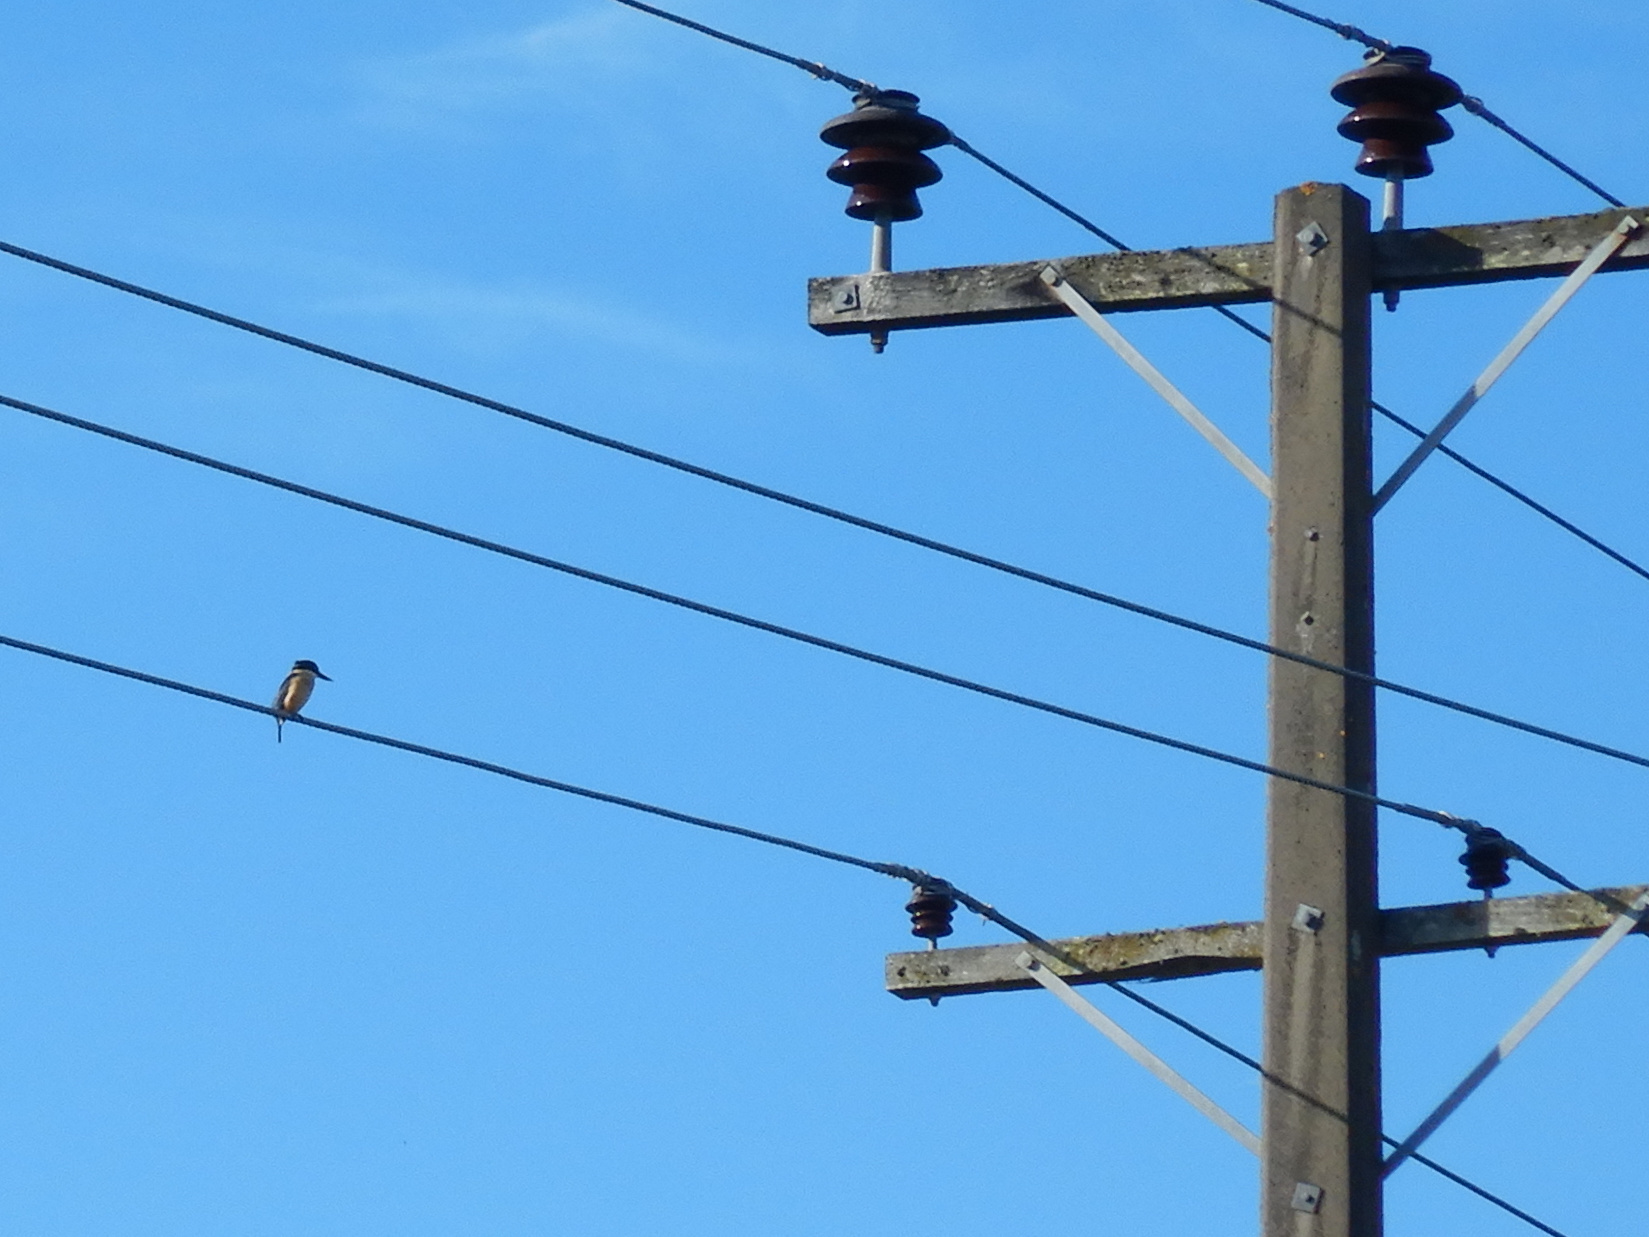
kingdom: Animalia
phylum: Chordata
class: Aves
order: Coraciiformes
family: Alcedinidae
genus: Todiramphus
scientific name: Todiramphus sanctus
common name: Sacred kingfisher
